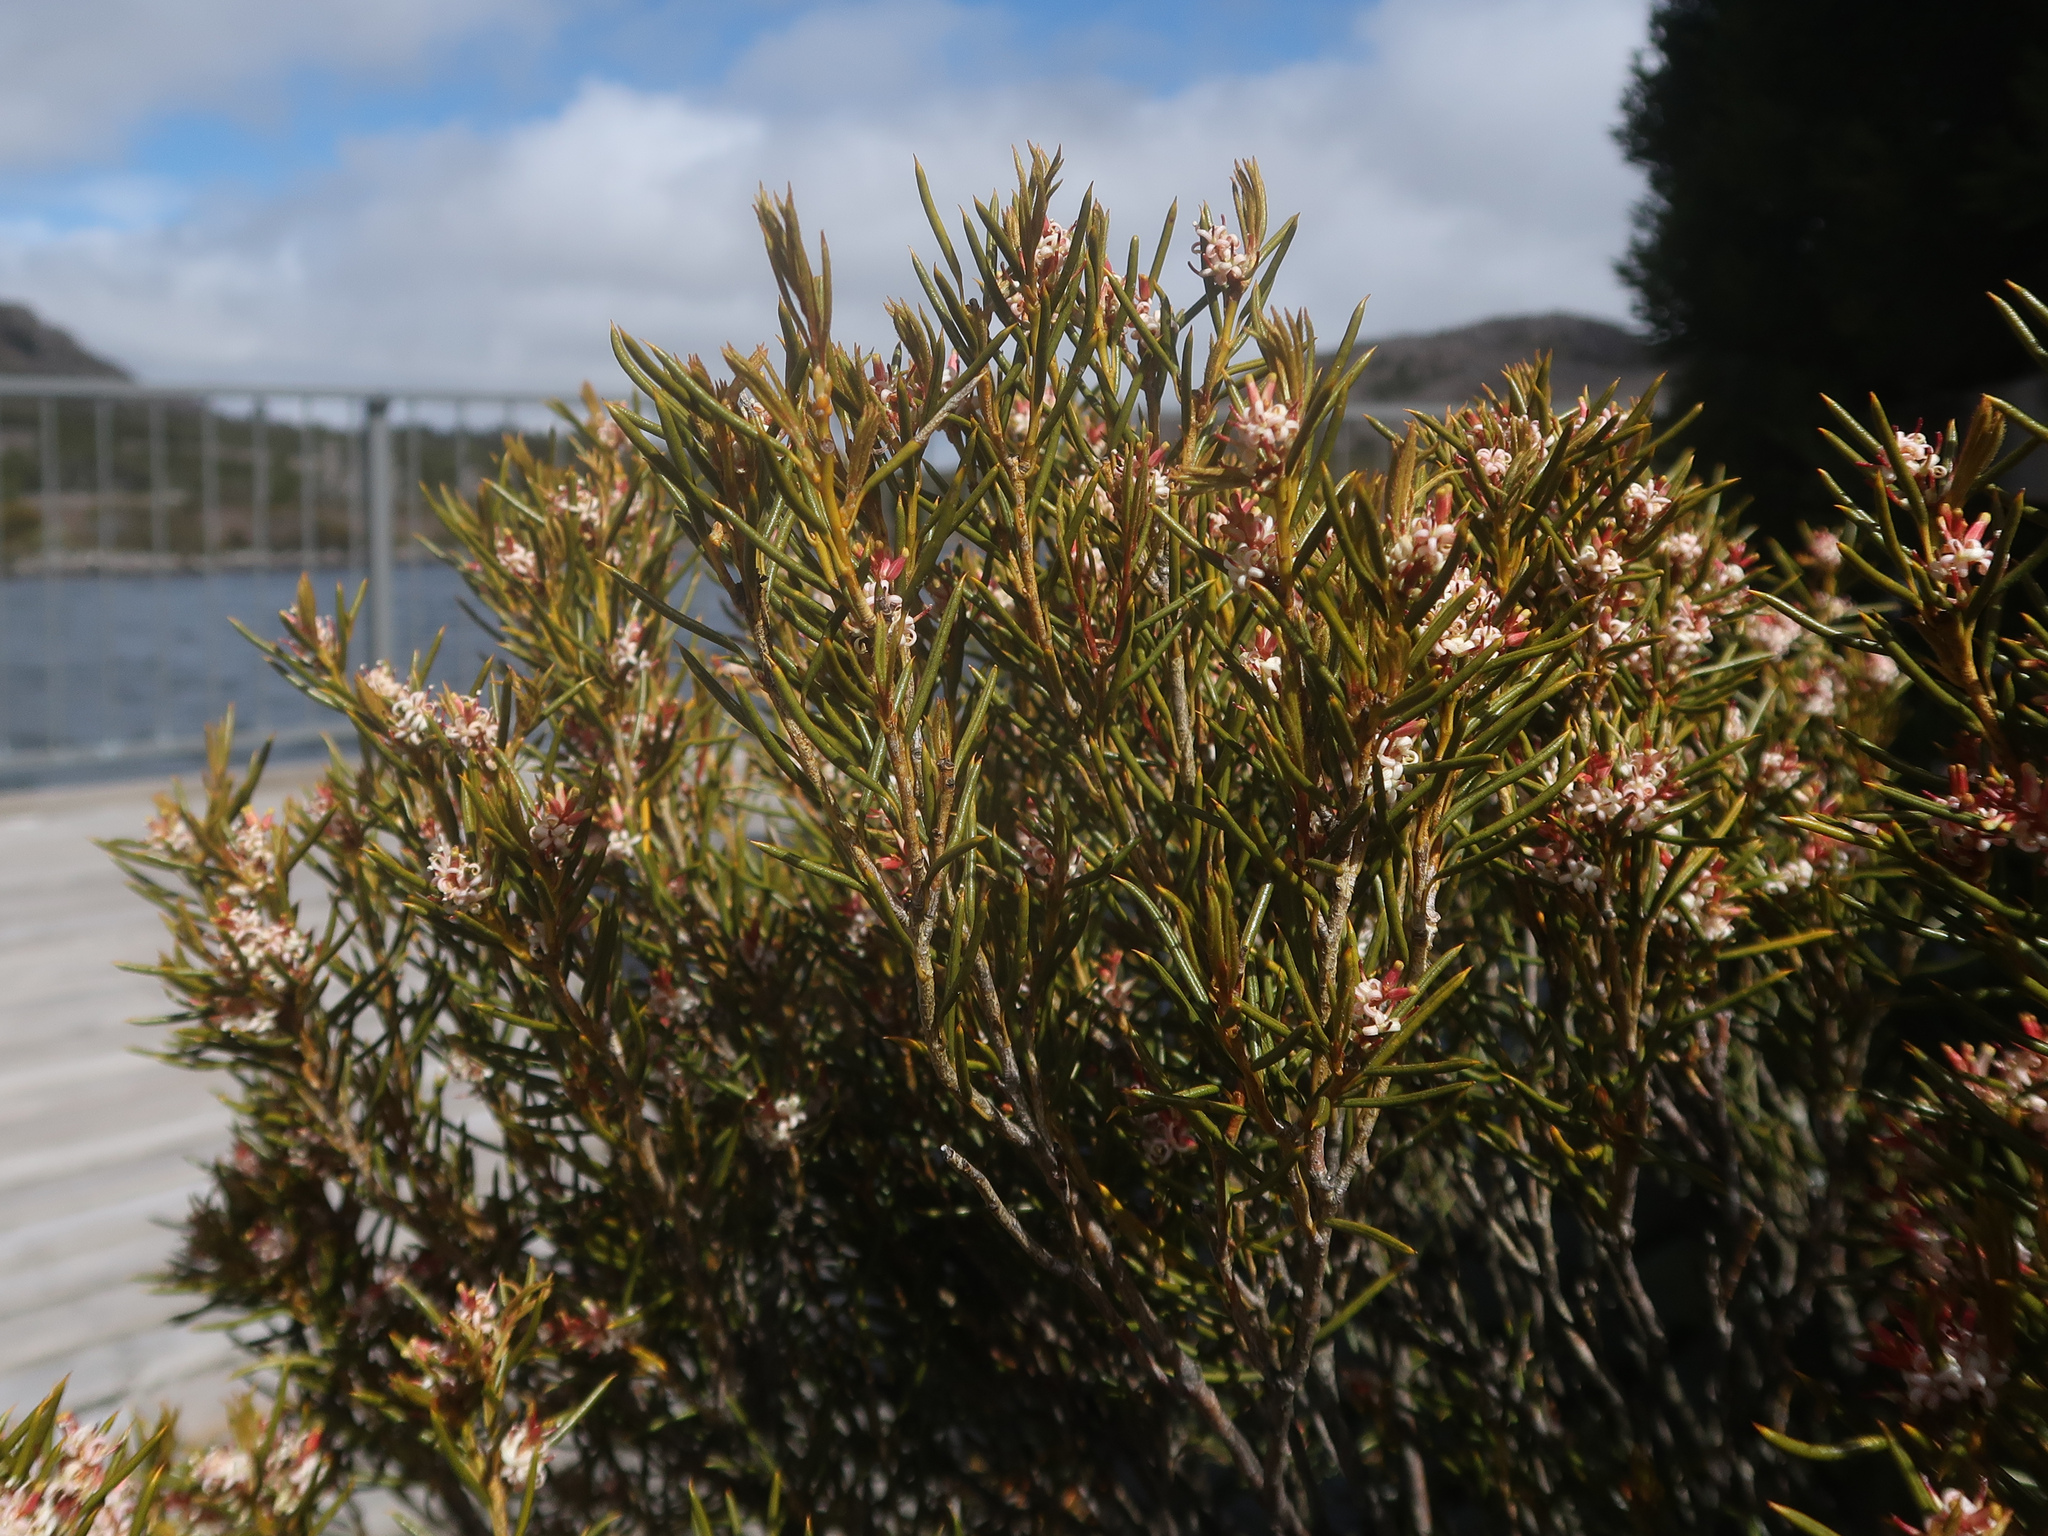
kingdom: Plantae
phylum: Tracheophyta
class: Magnoliopsida
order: Proteales
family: Proteaceae
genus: Orites
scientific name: Orites acicularis
